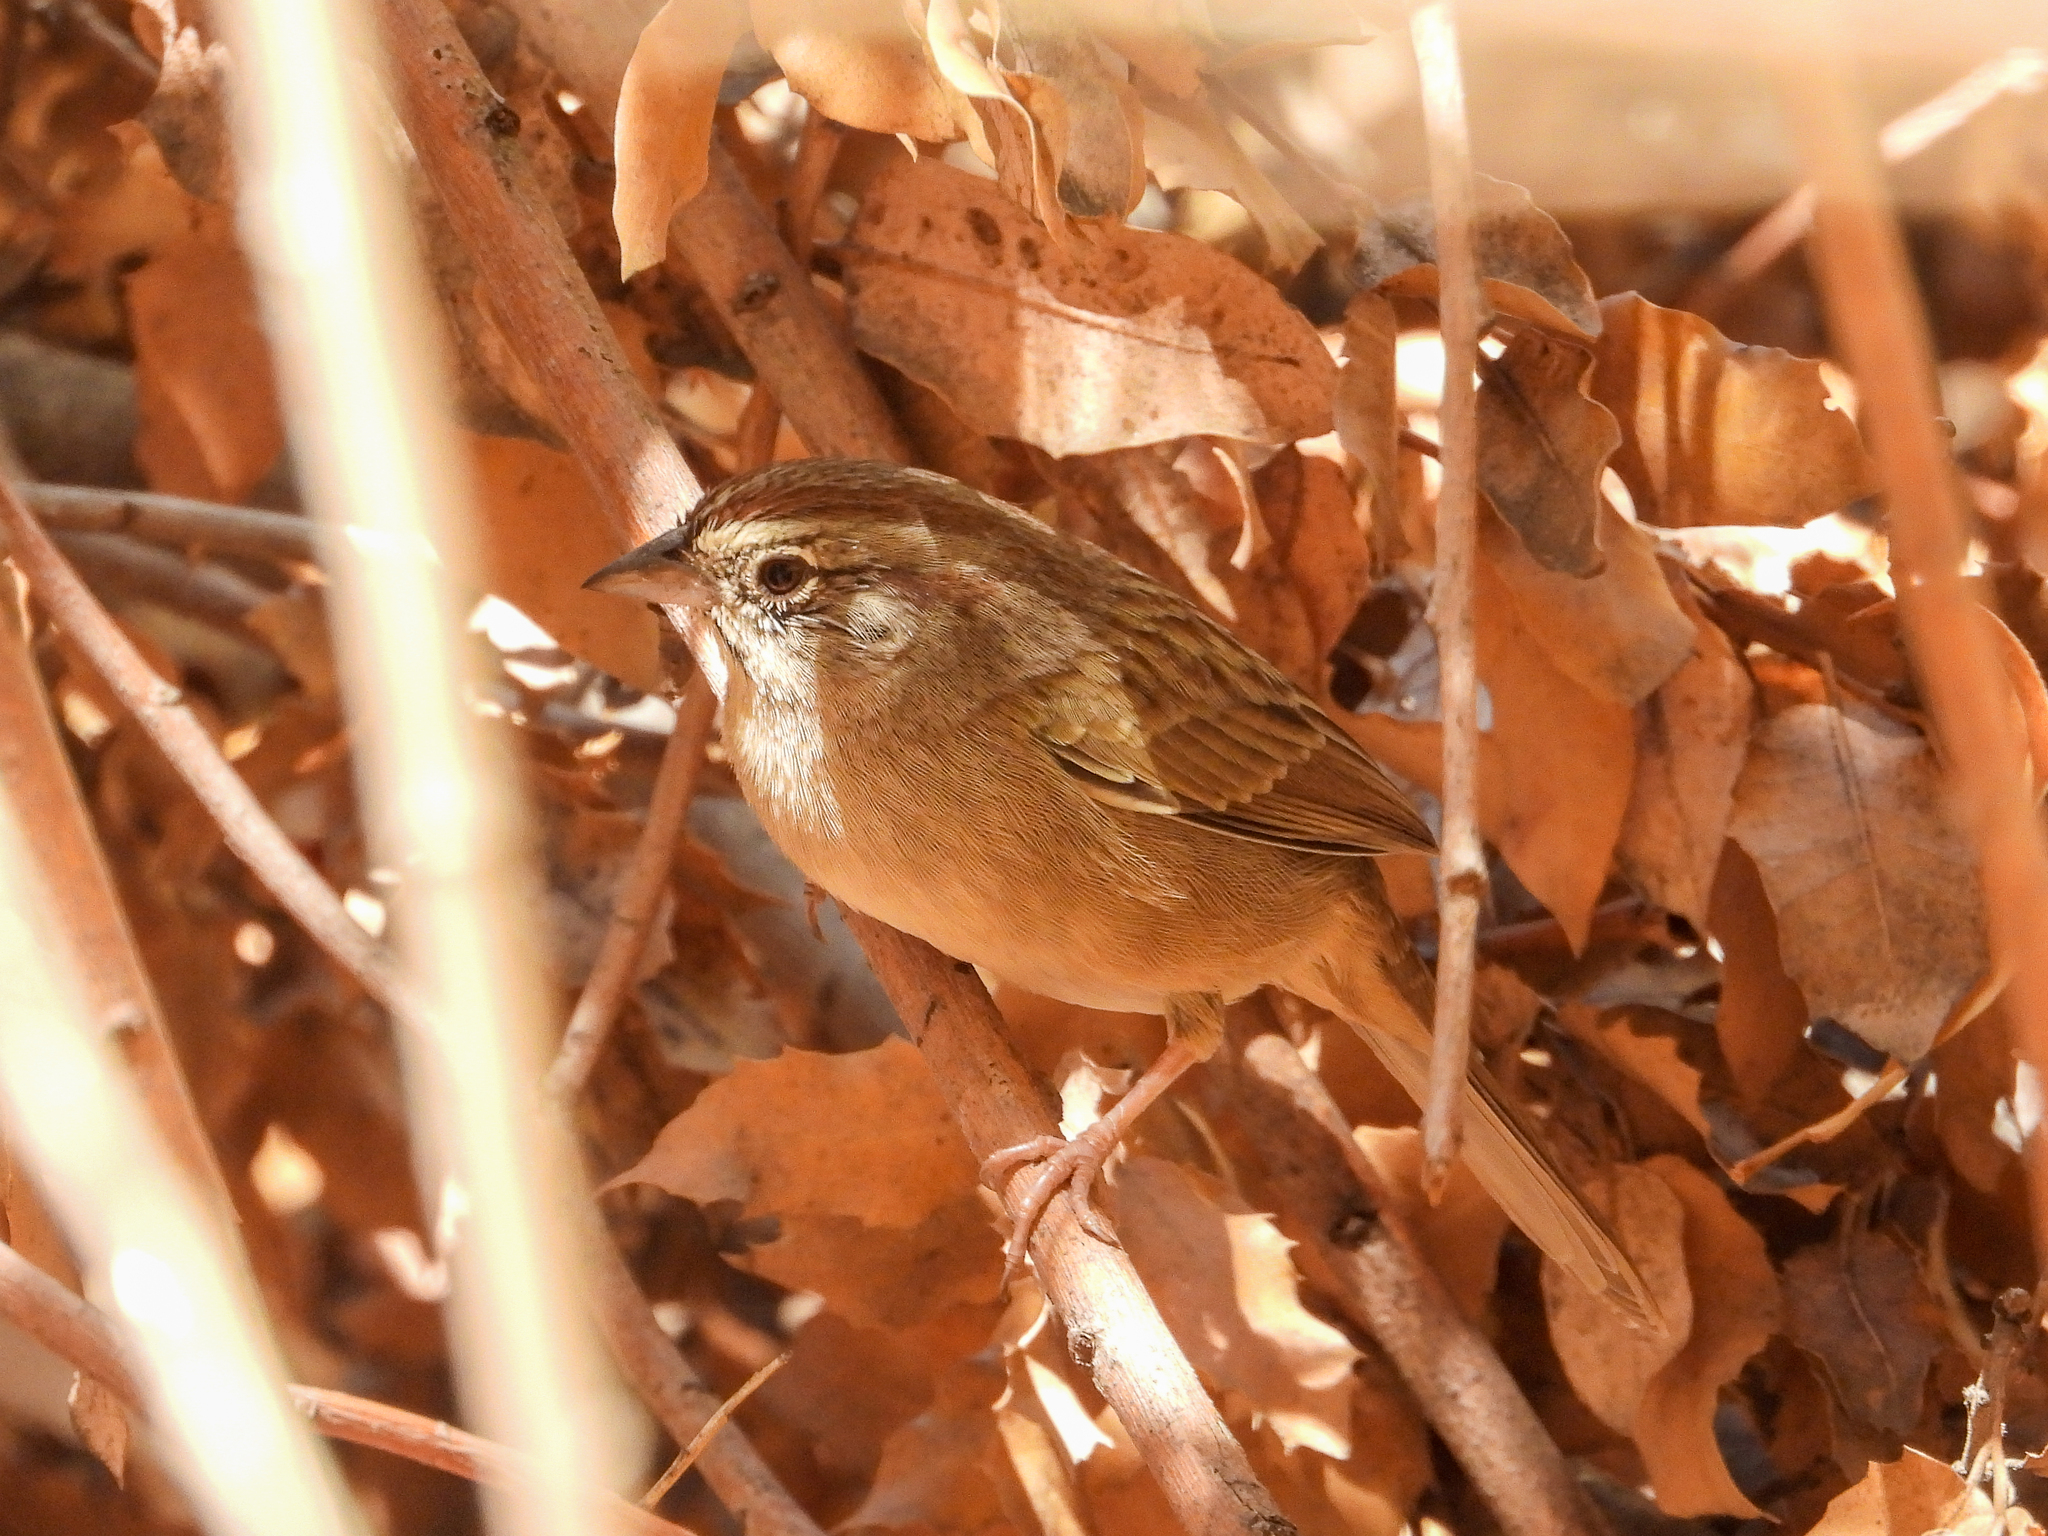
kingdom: Animalia
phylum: Chordata
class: Aves
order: Passeriformes
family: Passerellidae
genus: Aimophila
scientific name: Aimophila ruficeps
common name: Rufous-crowned sparrow
